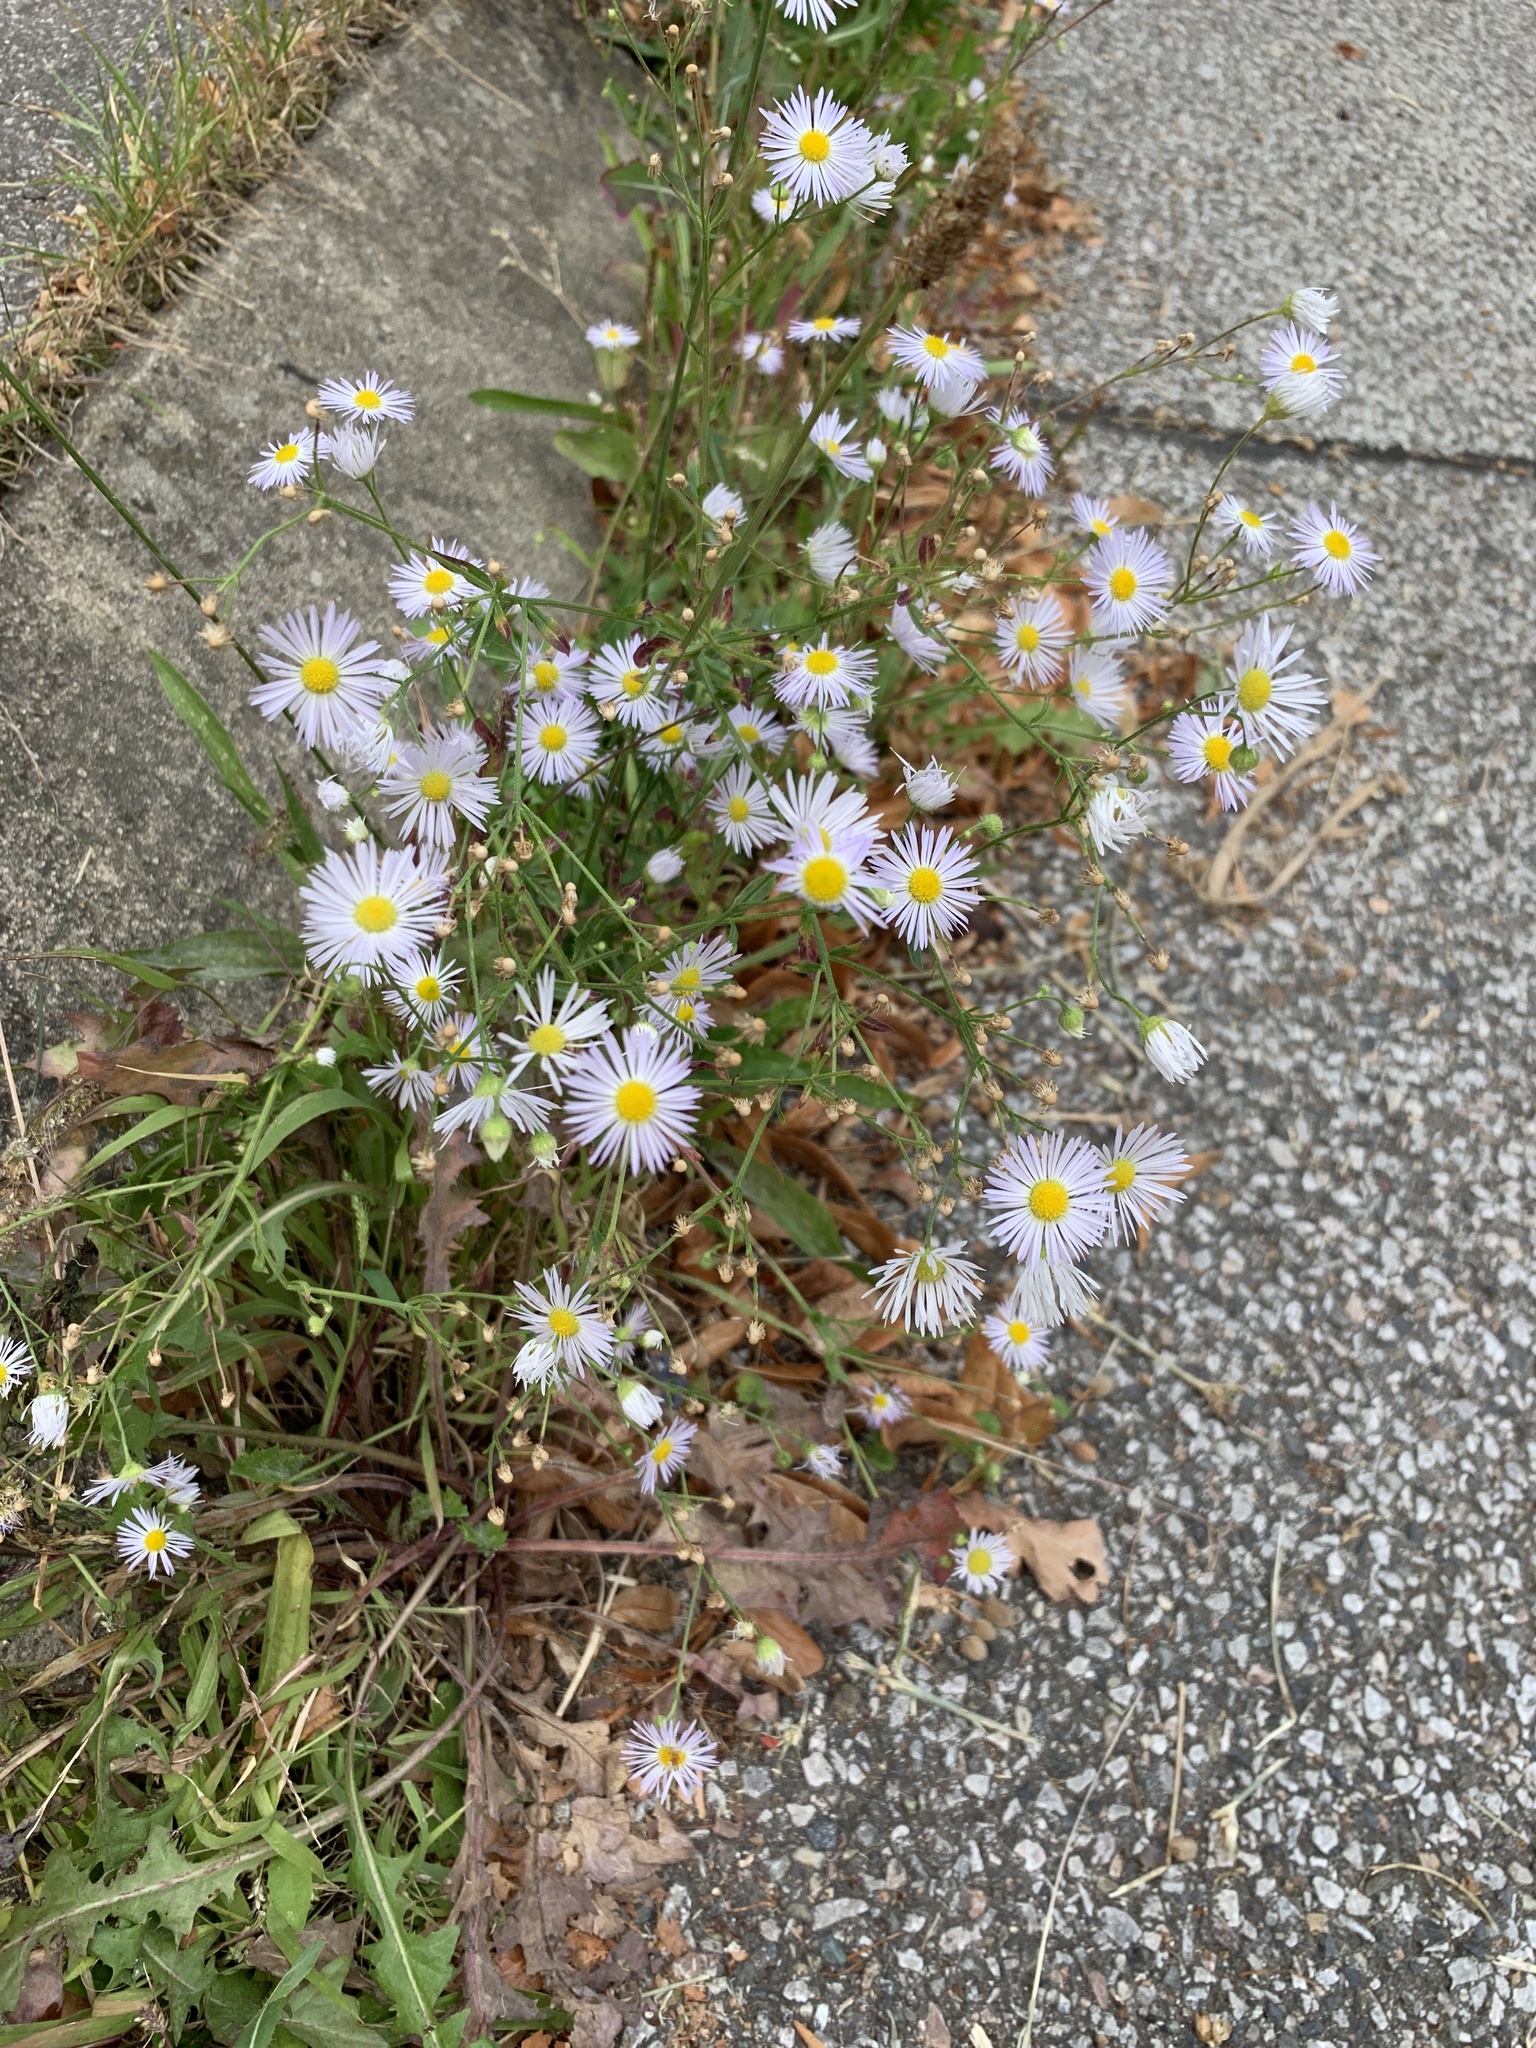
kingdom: Plantae
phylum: Tracheophyta
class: Magnoliopsida
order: Asterales
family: Asteraceae
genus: Erigeron
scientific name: Erigeron annuus
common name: Tall fleabane
